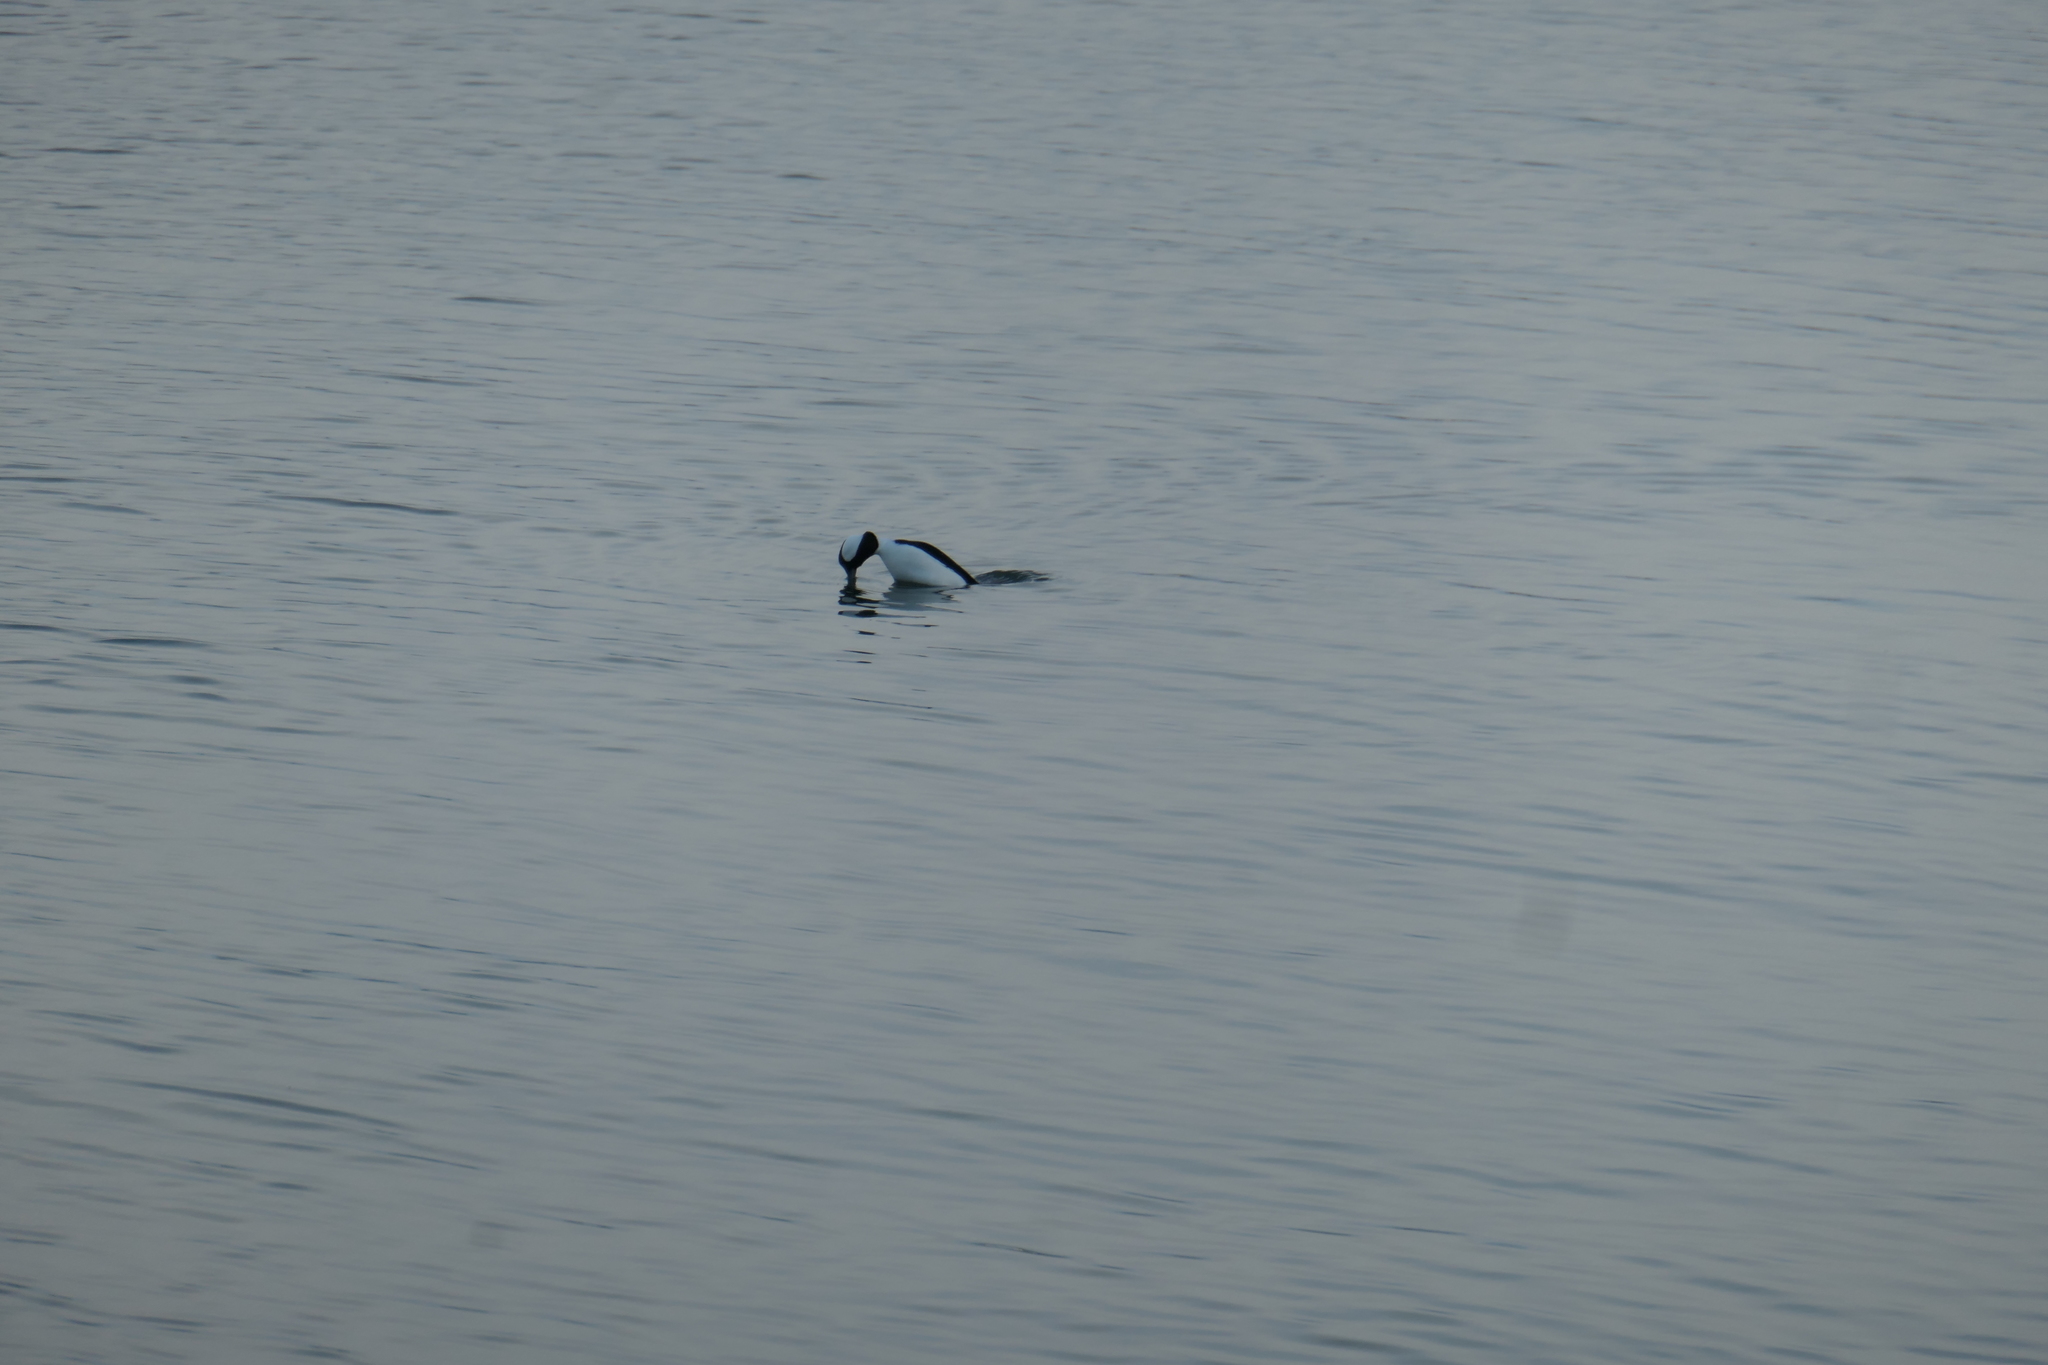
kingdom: Animalia
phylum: Chordata
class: Aves
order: Anseriformes
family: Anatidae
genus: Bucephala
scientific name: Bucephala albeola
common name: Bufflehead
